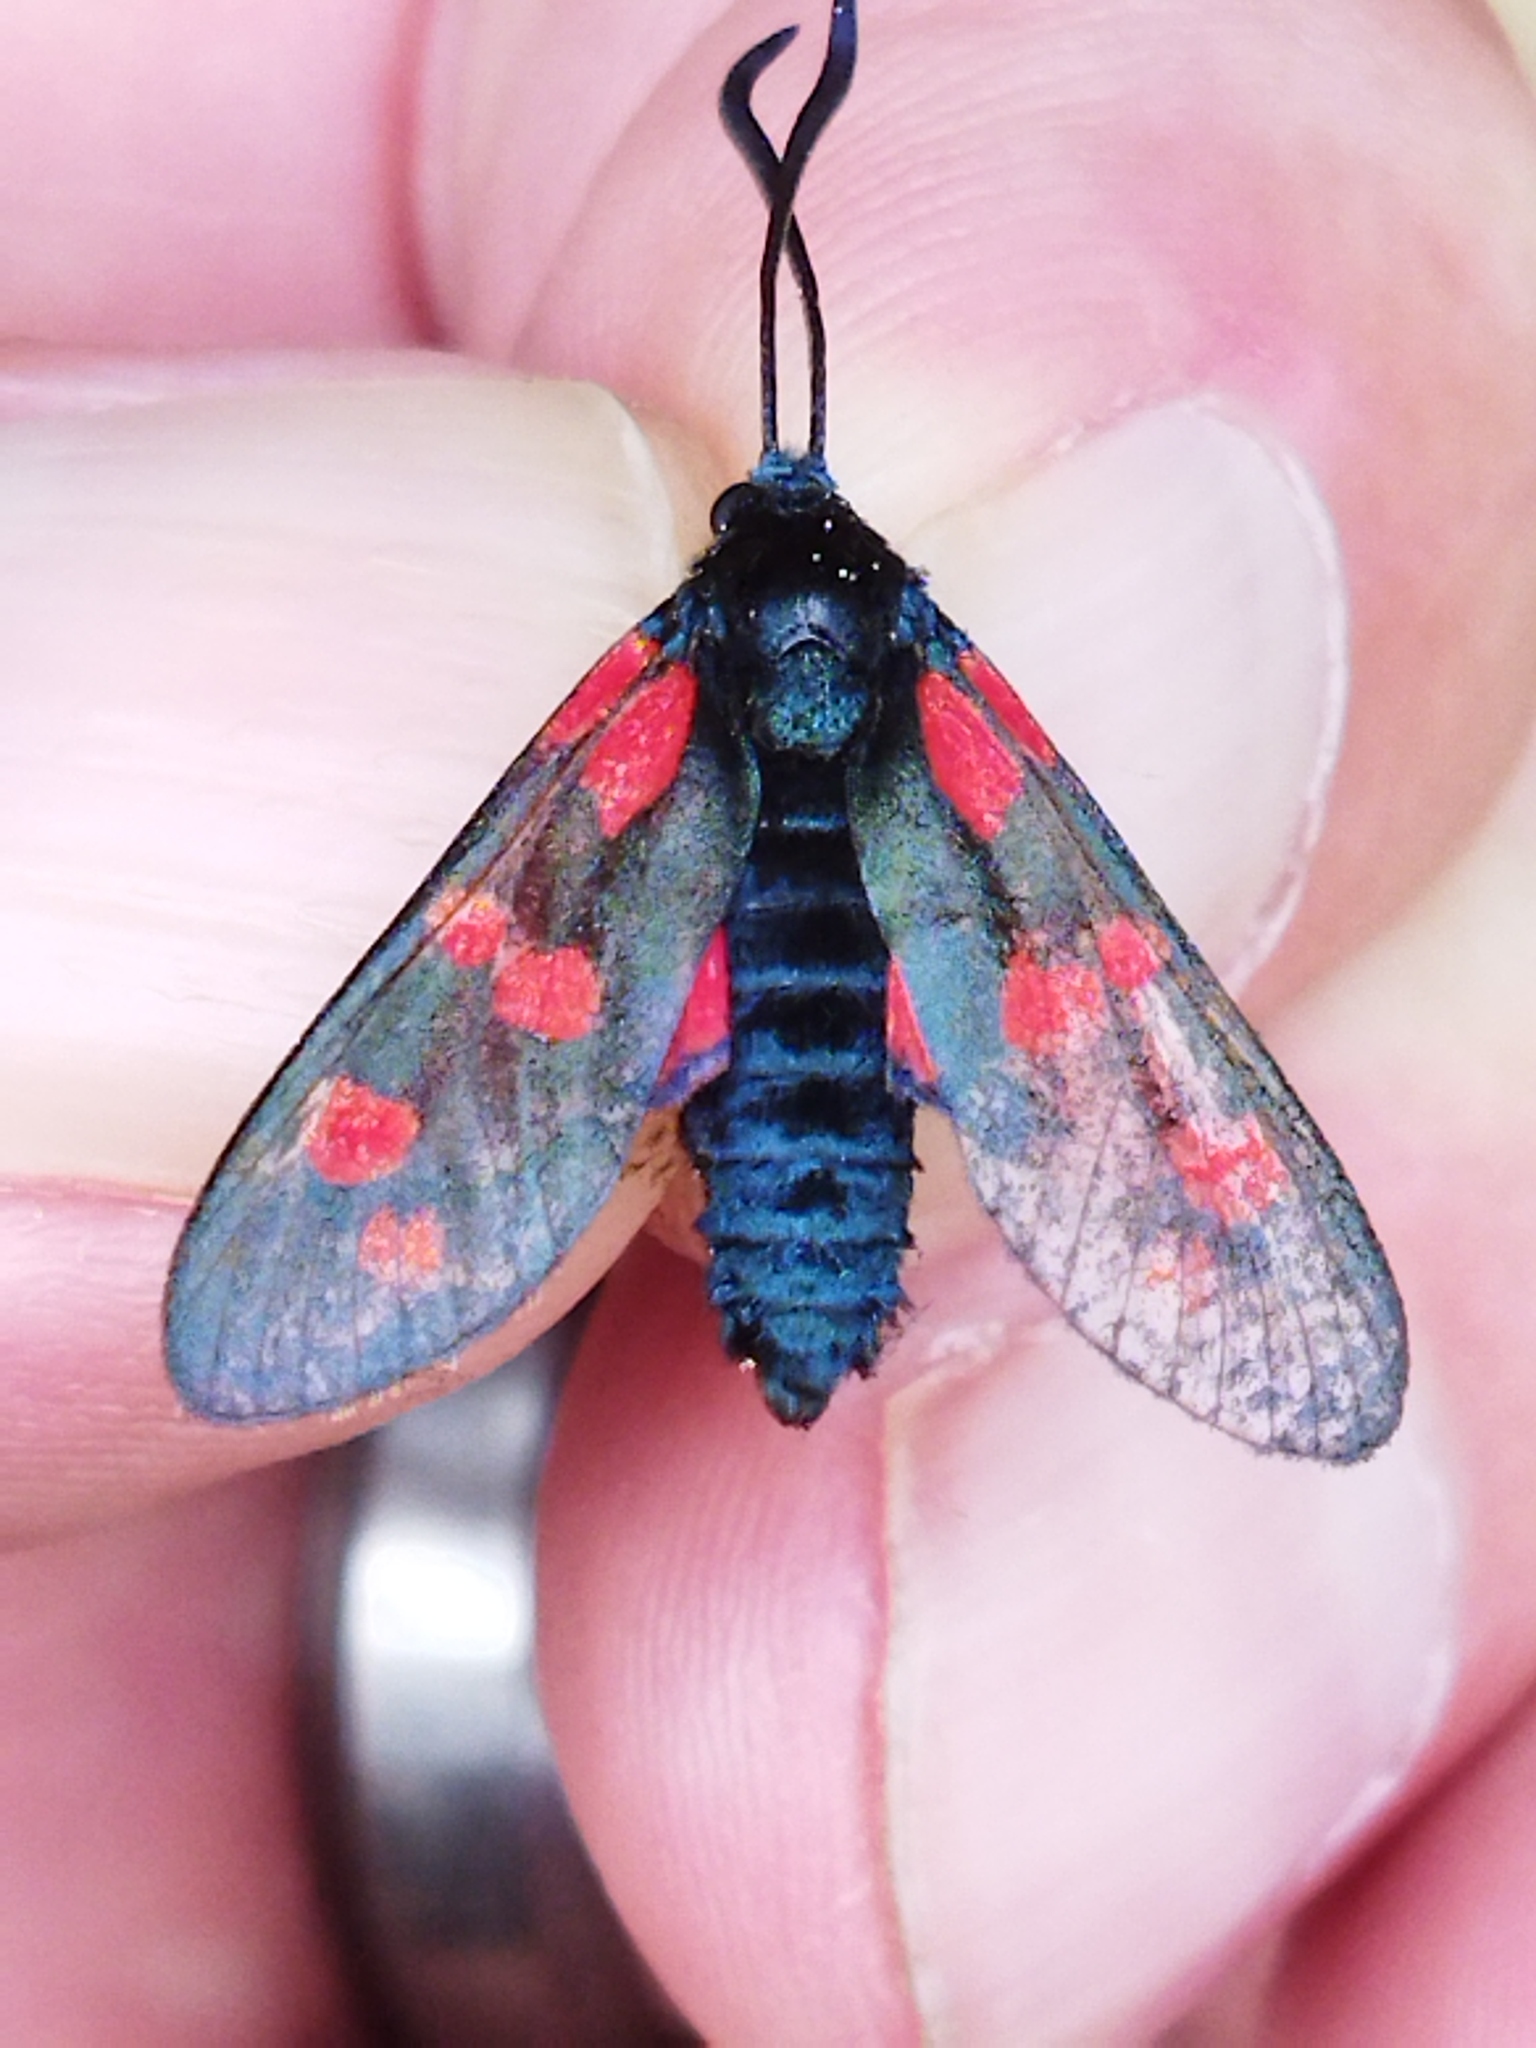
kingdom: Animalia
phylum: Arthropoda
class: Insecta
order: Lepidoptera
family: Zygaenidae
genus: Zygaena
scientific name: Zygaena filipendulae
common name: Six-spot burnet
